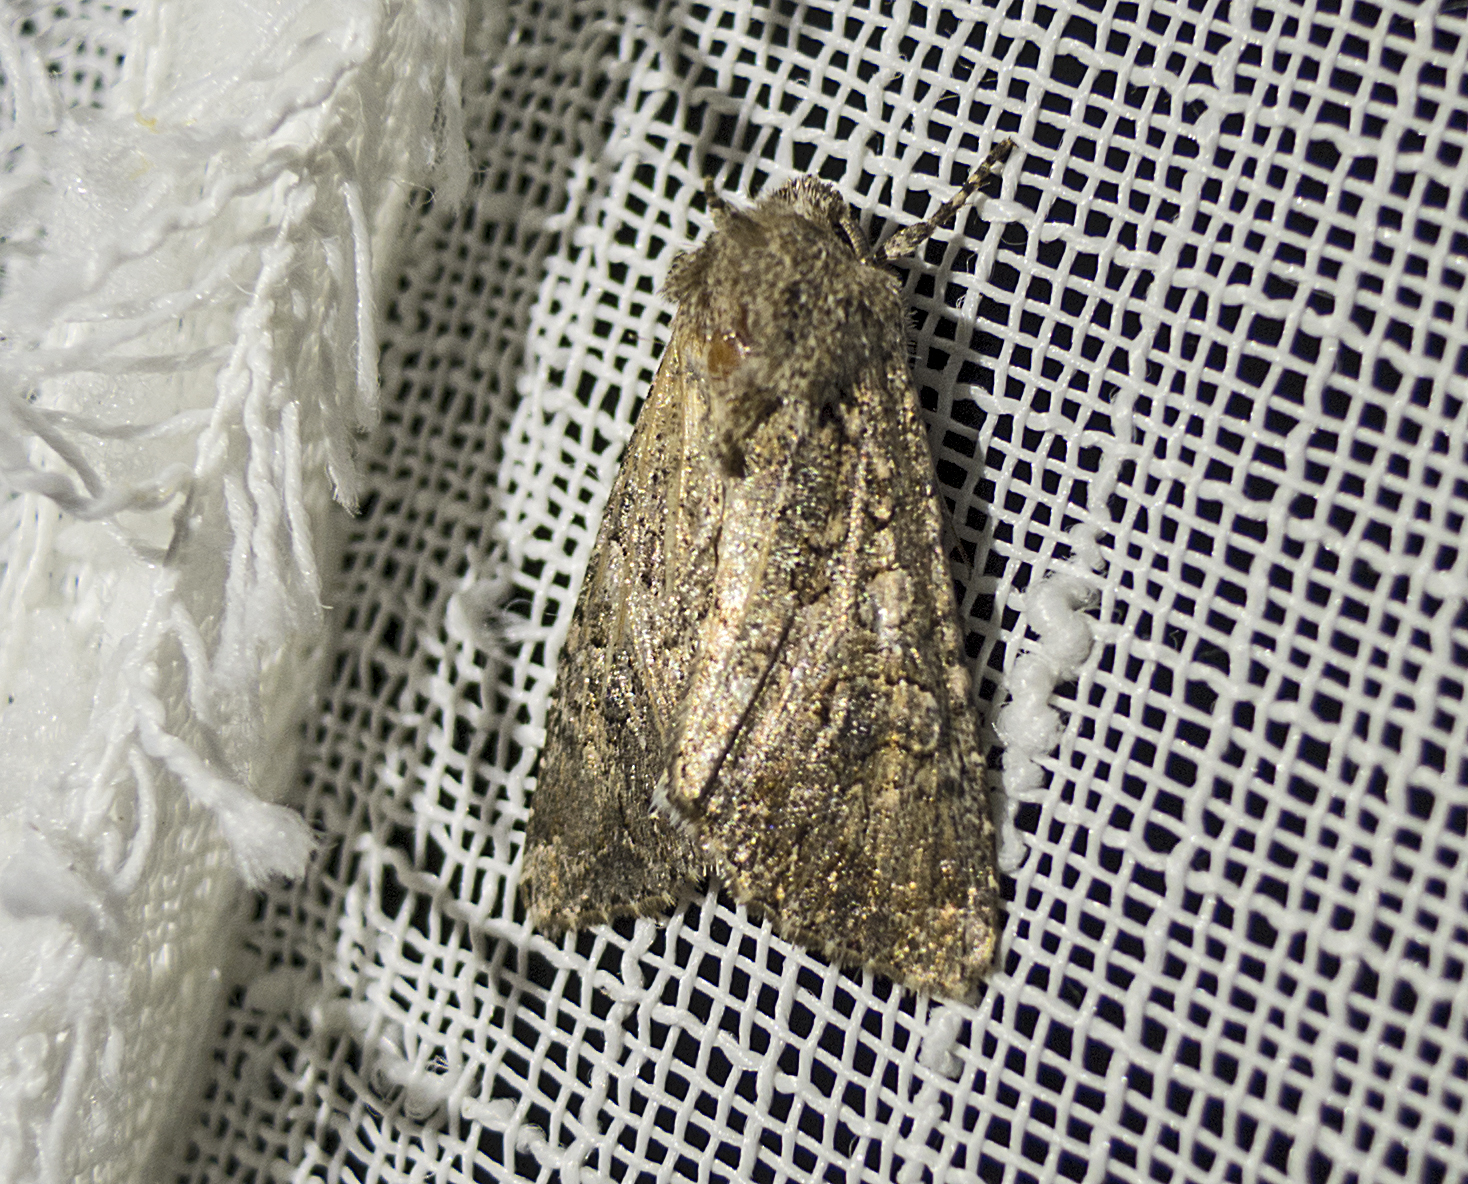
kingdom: Animalia
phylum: Arthropoda
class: Insecta
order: Lepidoptera
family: Noctuidae
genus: Anarta
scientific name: Anarta trifolii
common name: Clover cutworm moth
